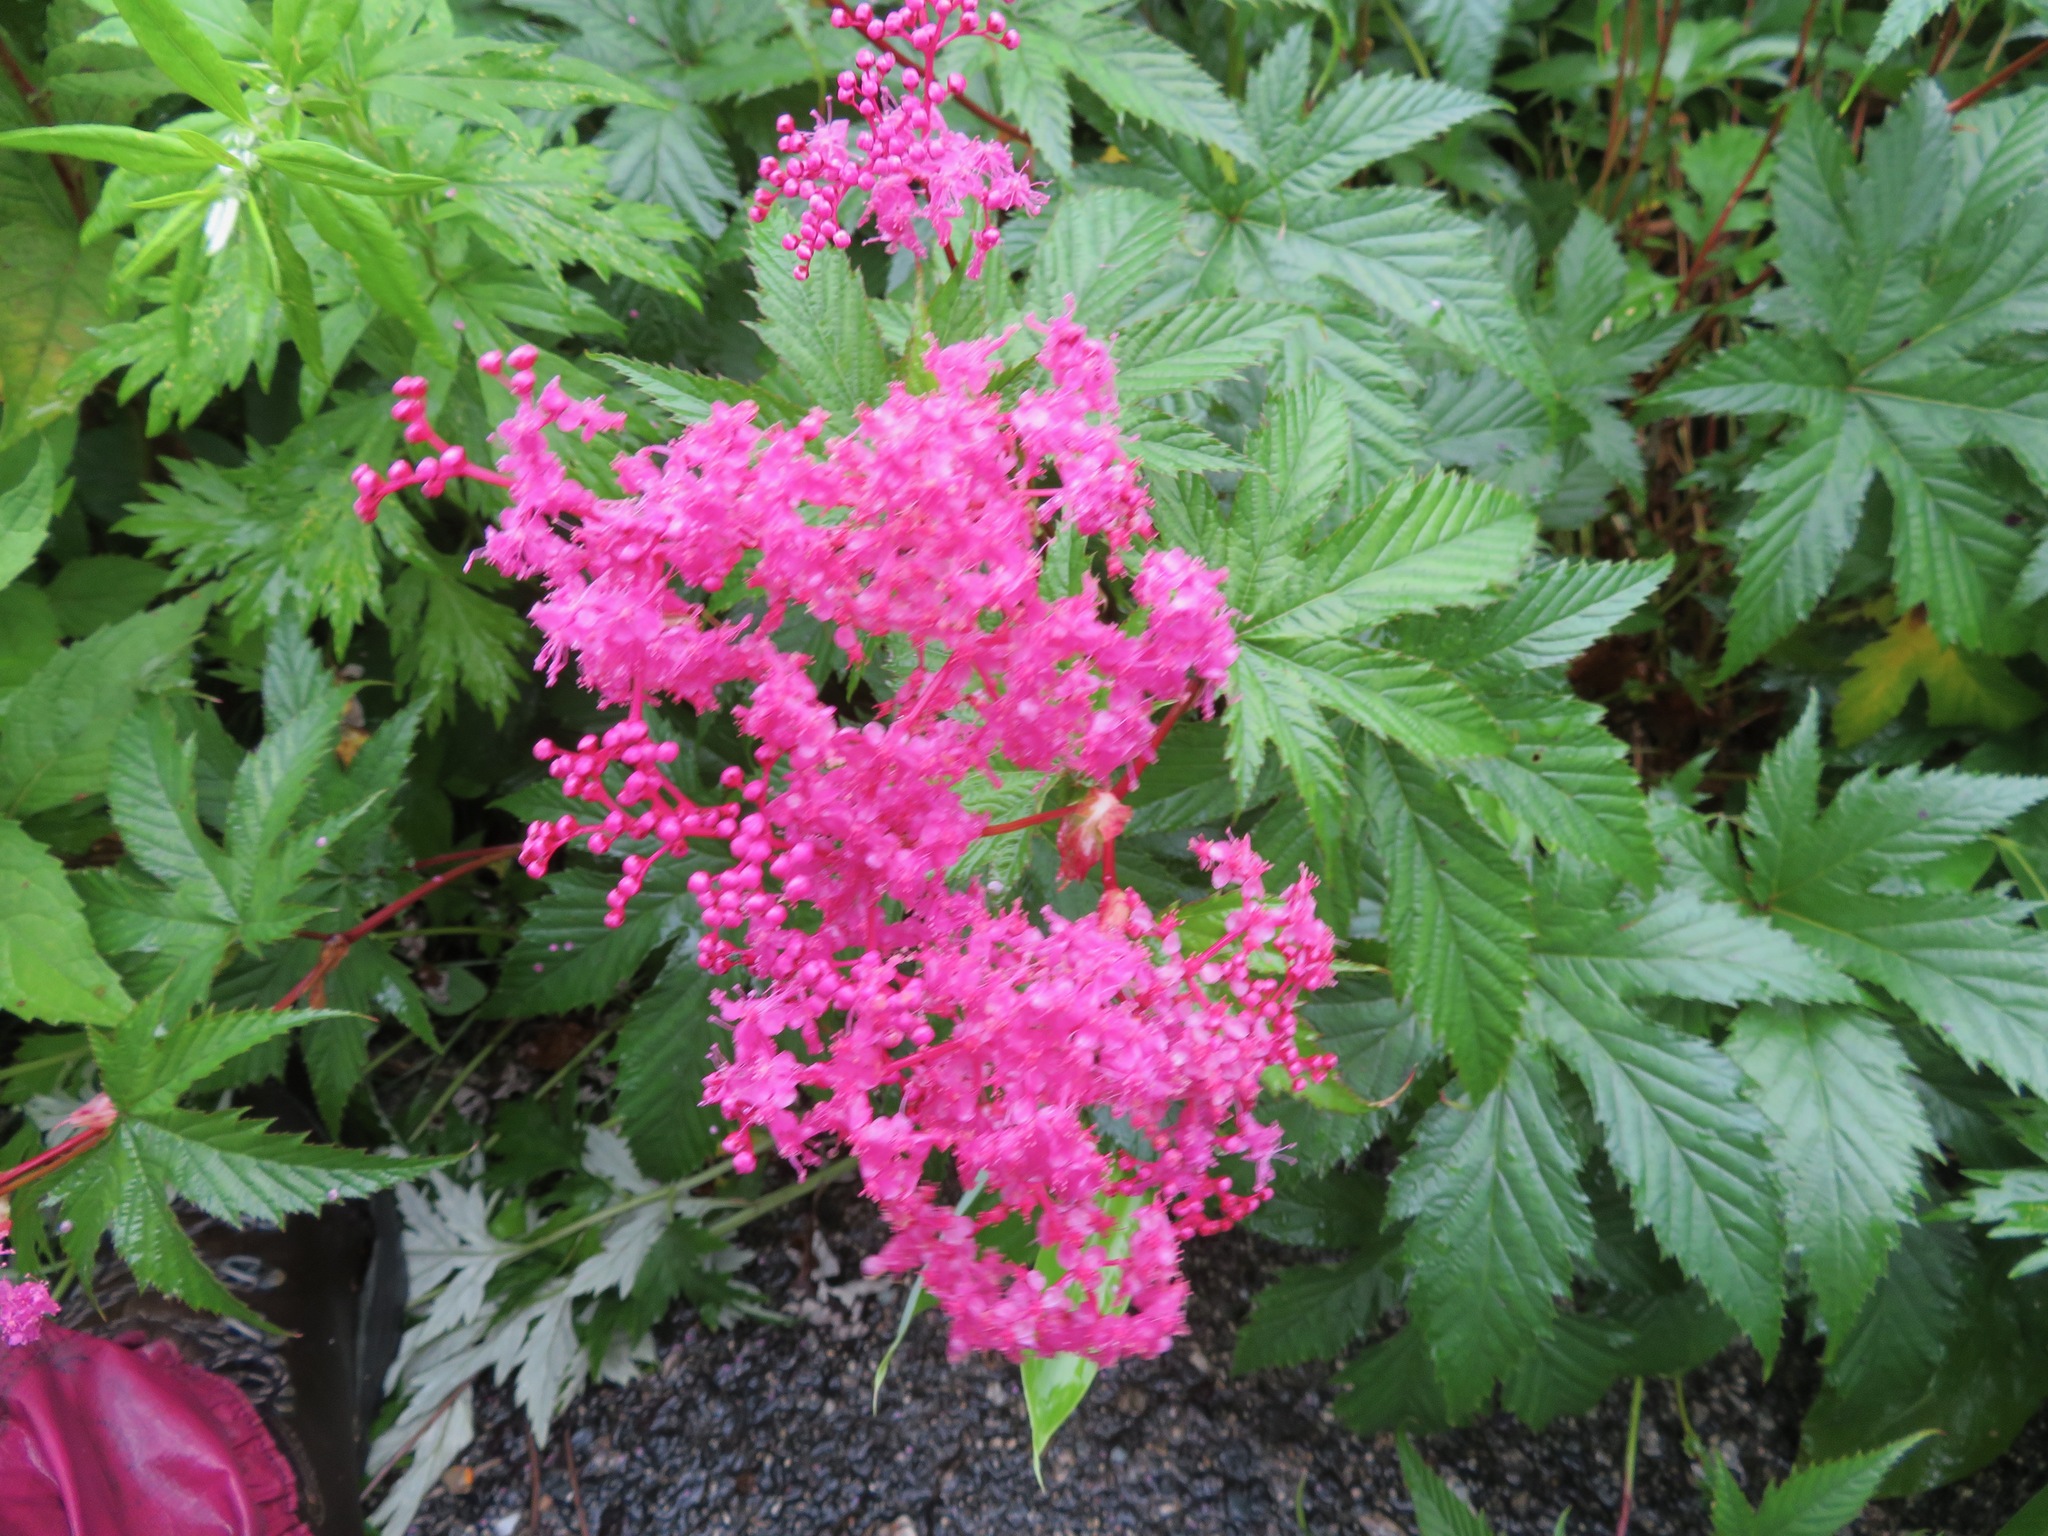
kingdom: Plantae
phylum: Tracheophyta
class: Magnoliopsida
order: Rosales
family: Rosaceae
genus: Filipendula
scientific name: Filipendula multijuga
